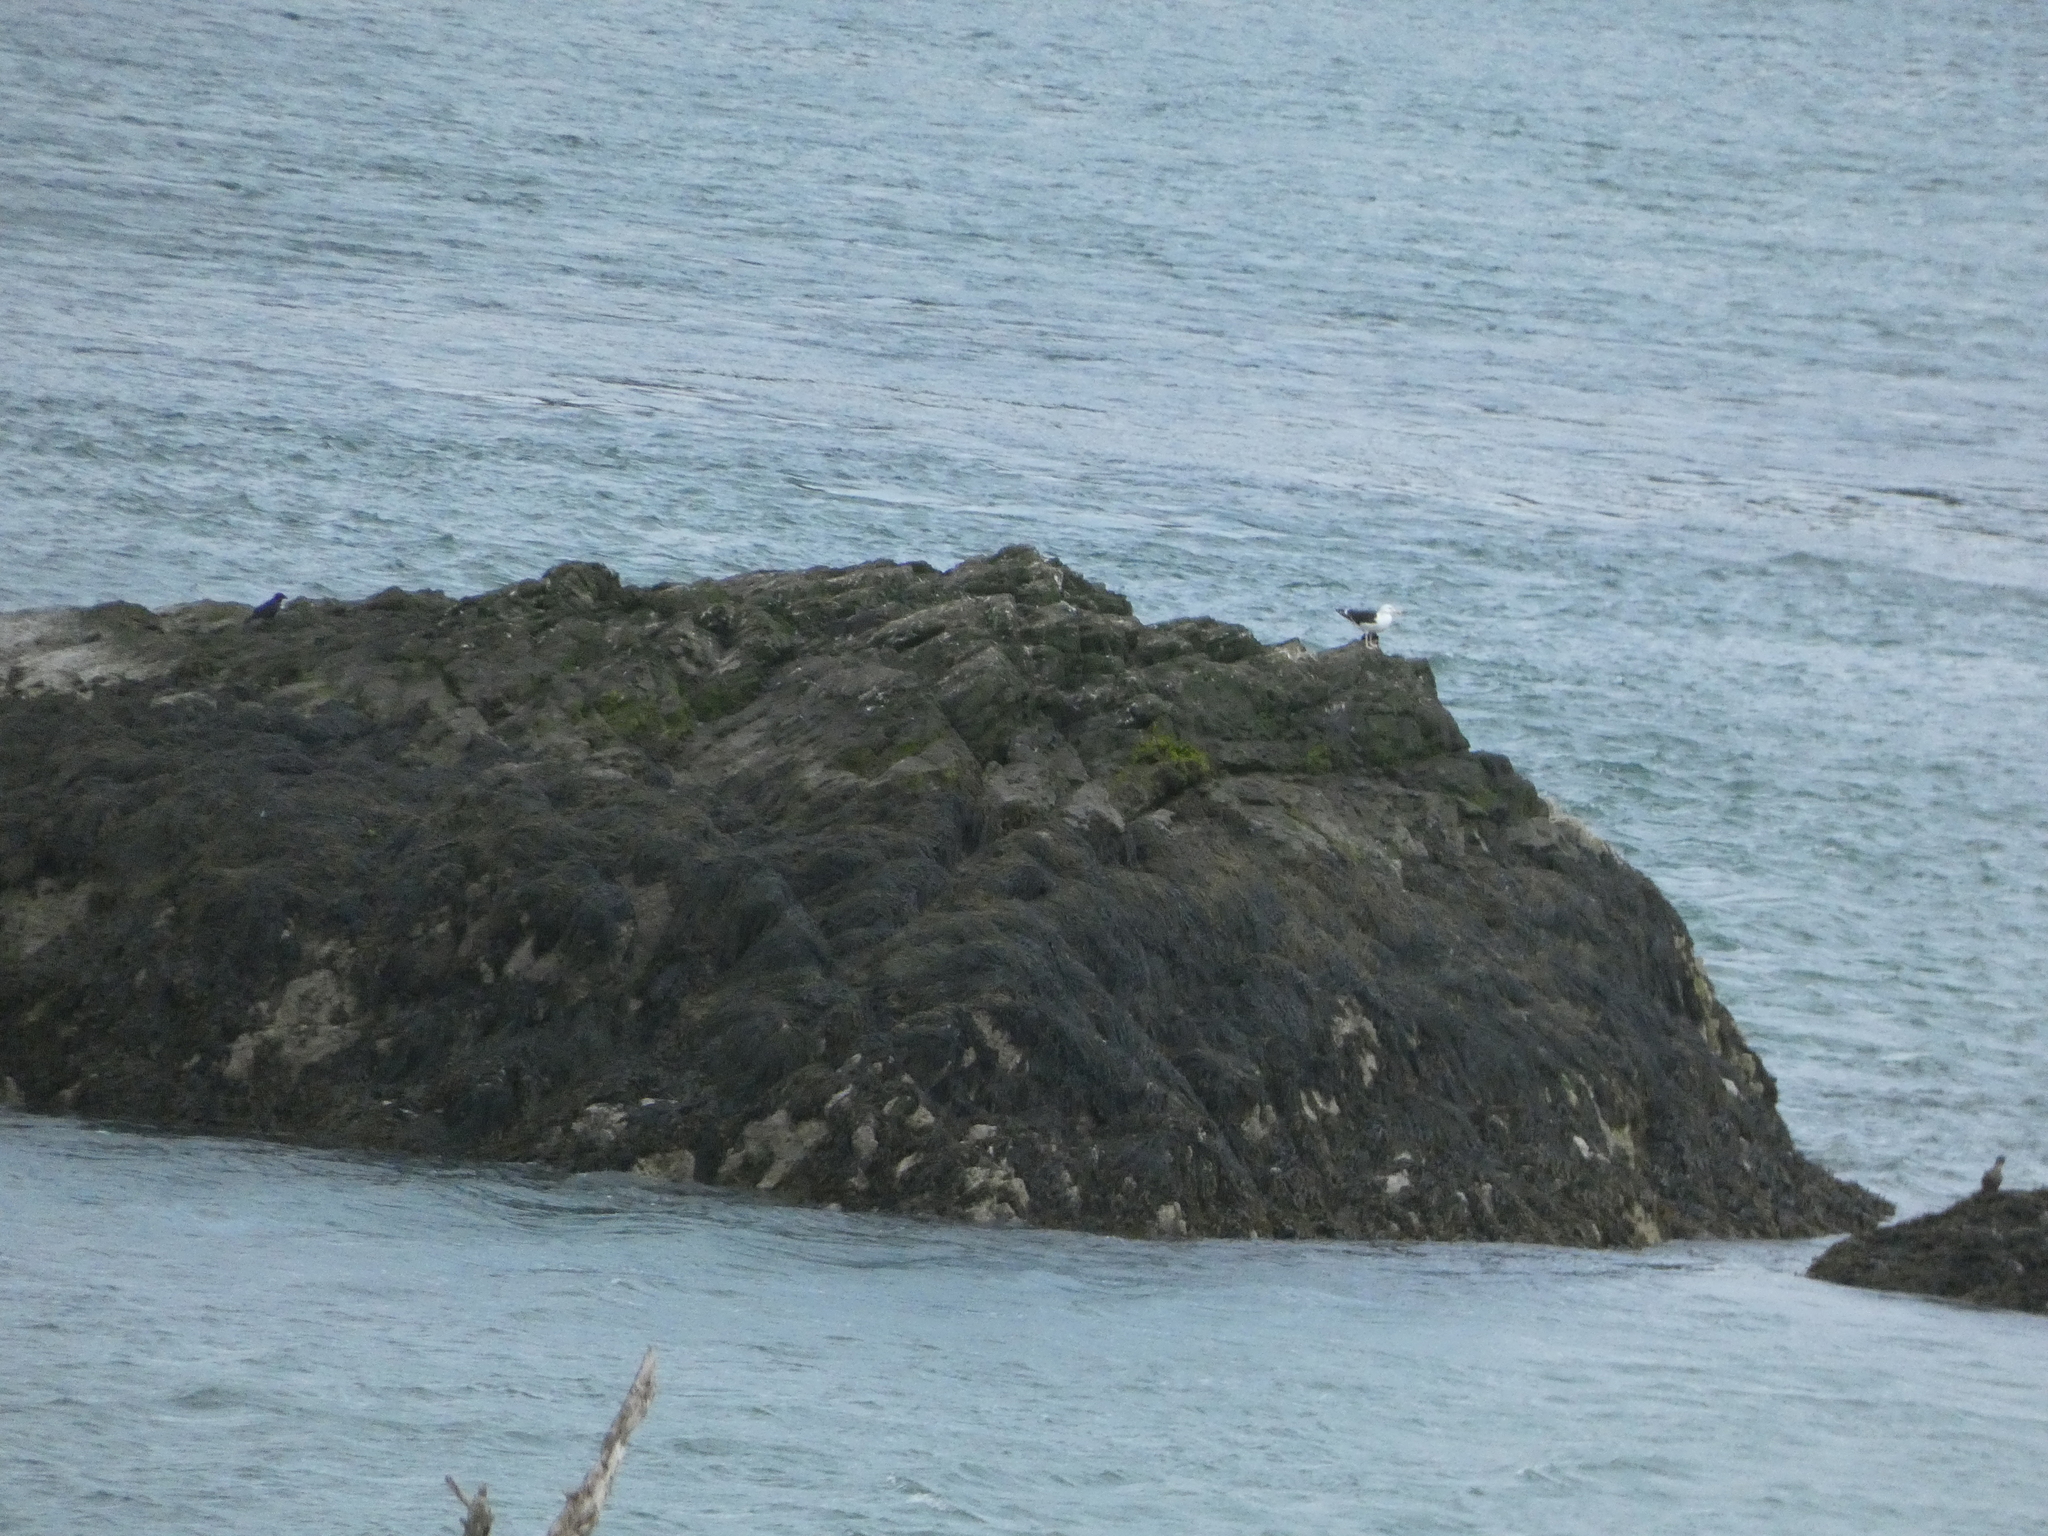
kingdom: Animalia
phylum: Chordata
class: Aves
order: Charadriiformes
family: Laridae
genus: Larus
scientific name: Larus marinus
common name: Great black-backed gull
